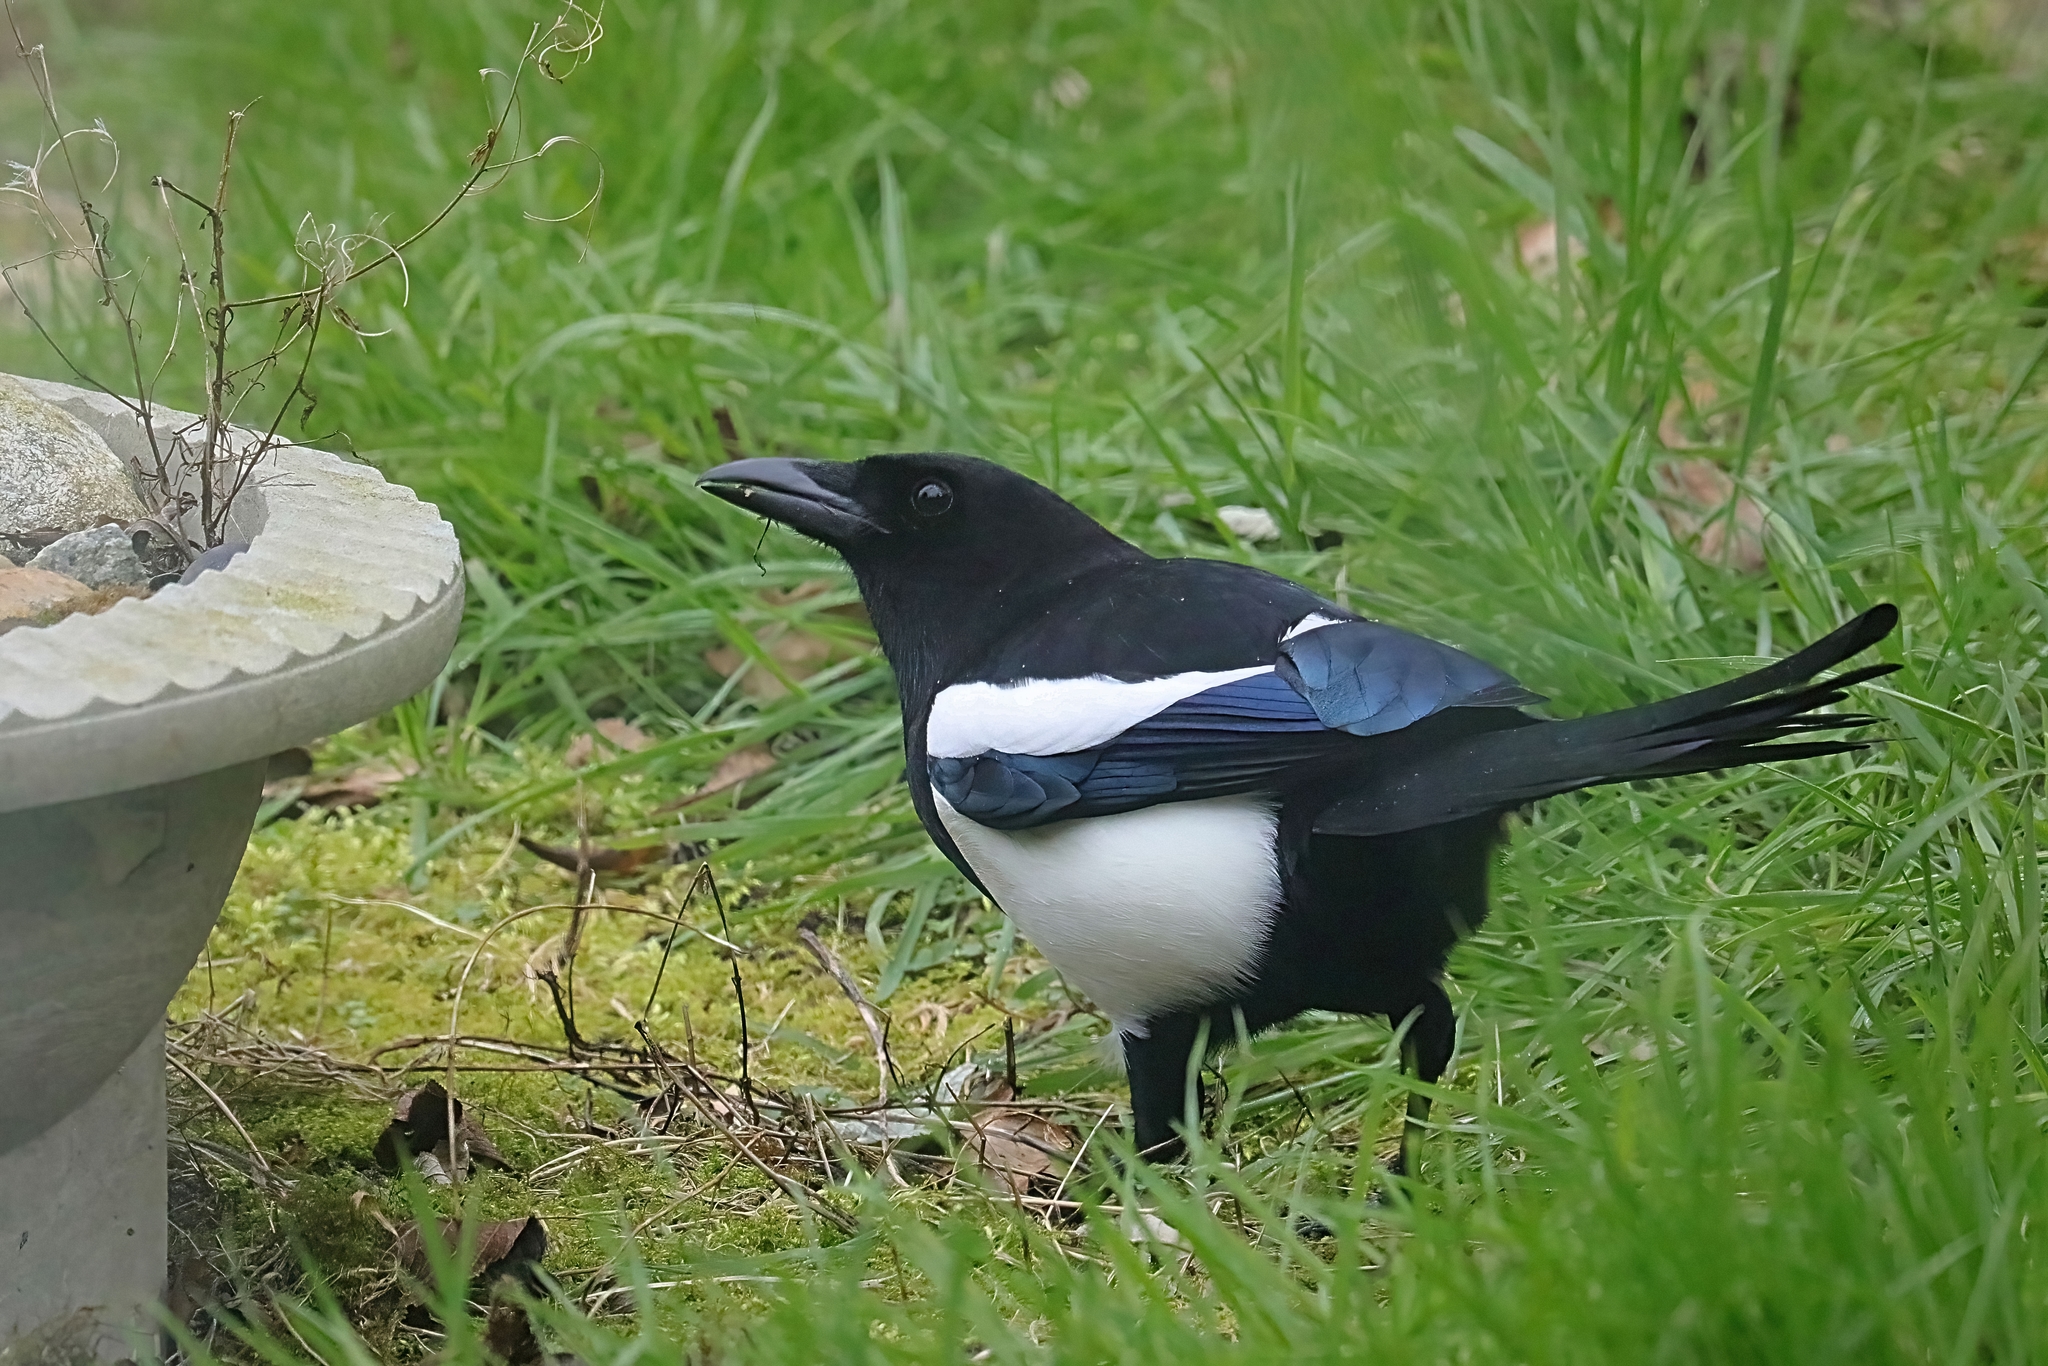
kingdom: Animalia
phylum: Chordata
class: Aves
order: Passeriformes
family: Corvidae
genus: Pica
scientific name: Pica pica
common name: Eurasian magpie
